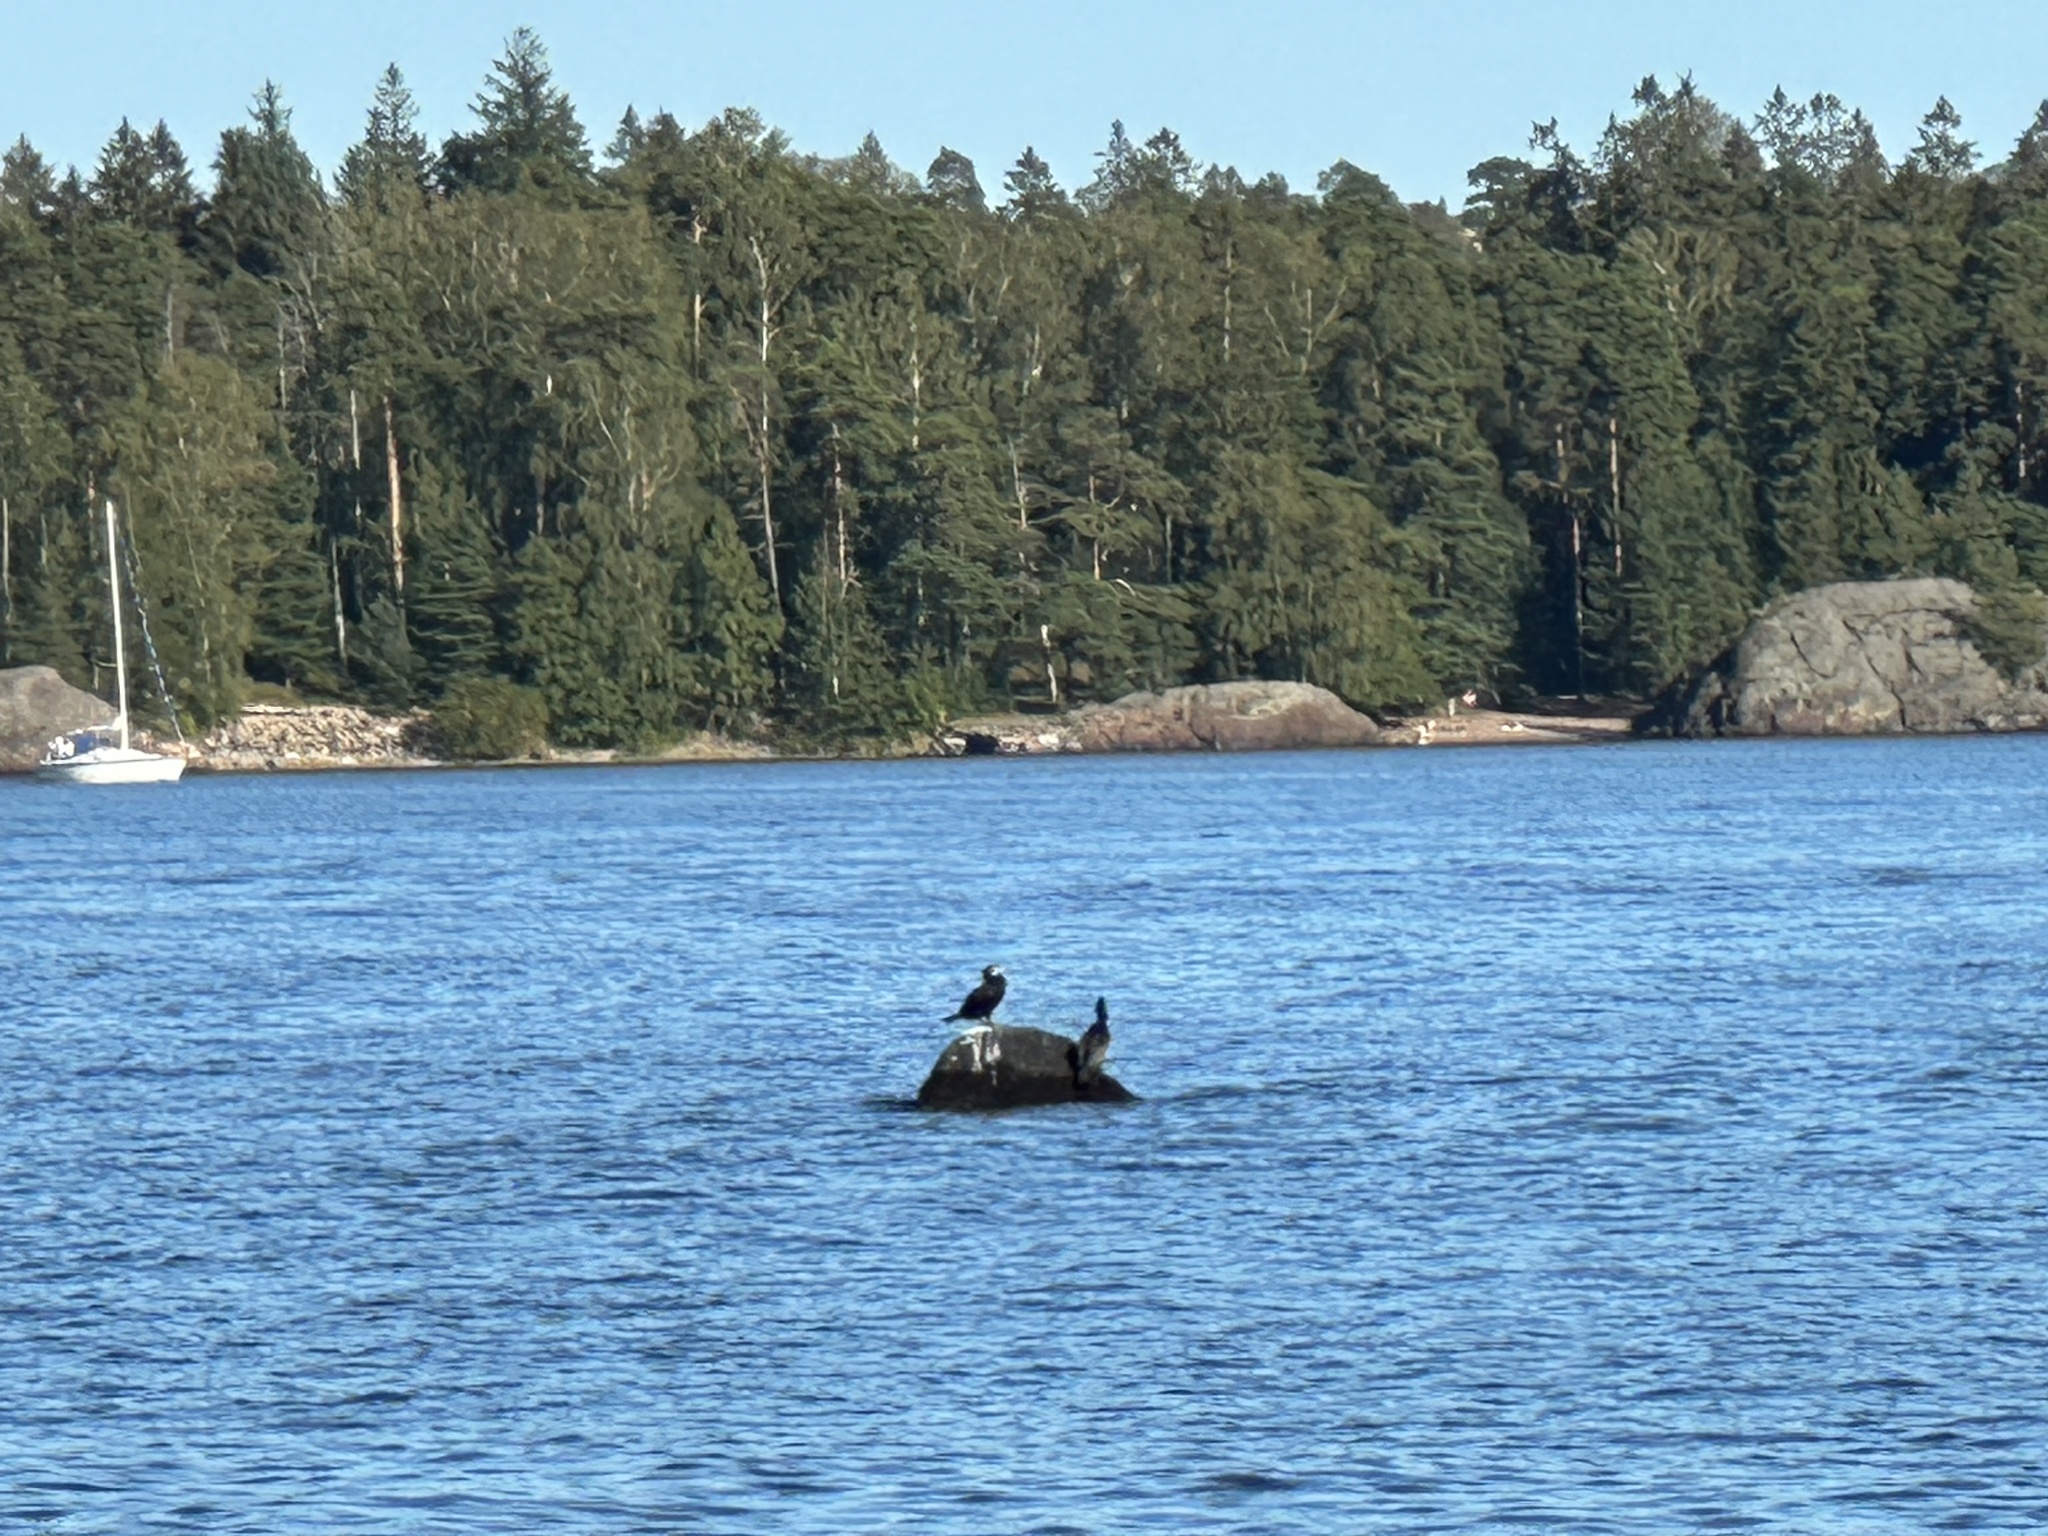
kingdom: Animalia
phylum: Chordata
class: Aves
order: Suliformes
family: Phalacrocoracidae
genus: Phalacrocorax
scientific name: Phalacrocorax carbo
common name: Great cormorant
